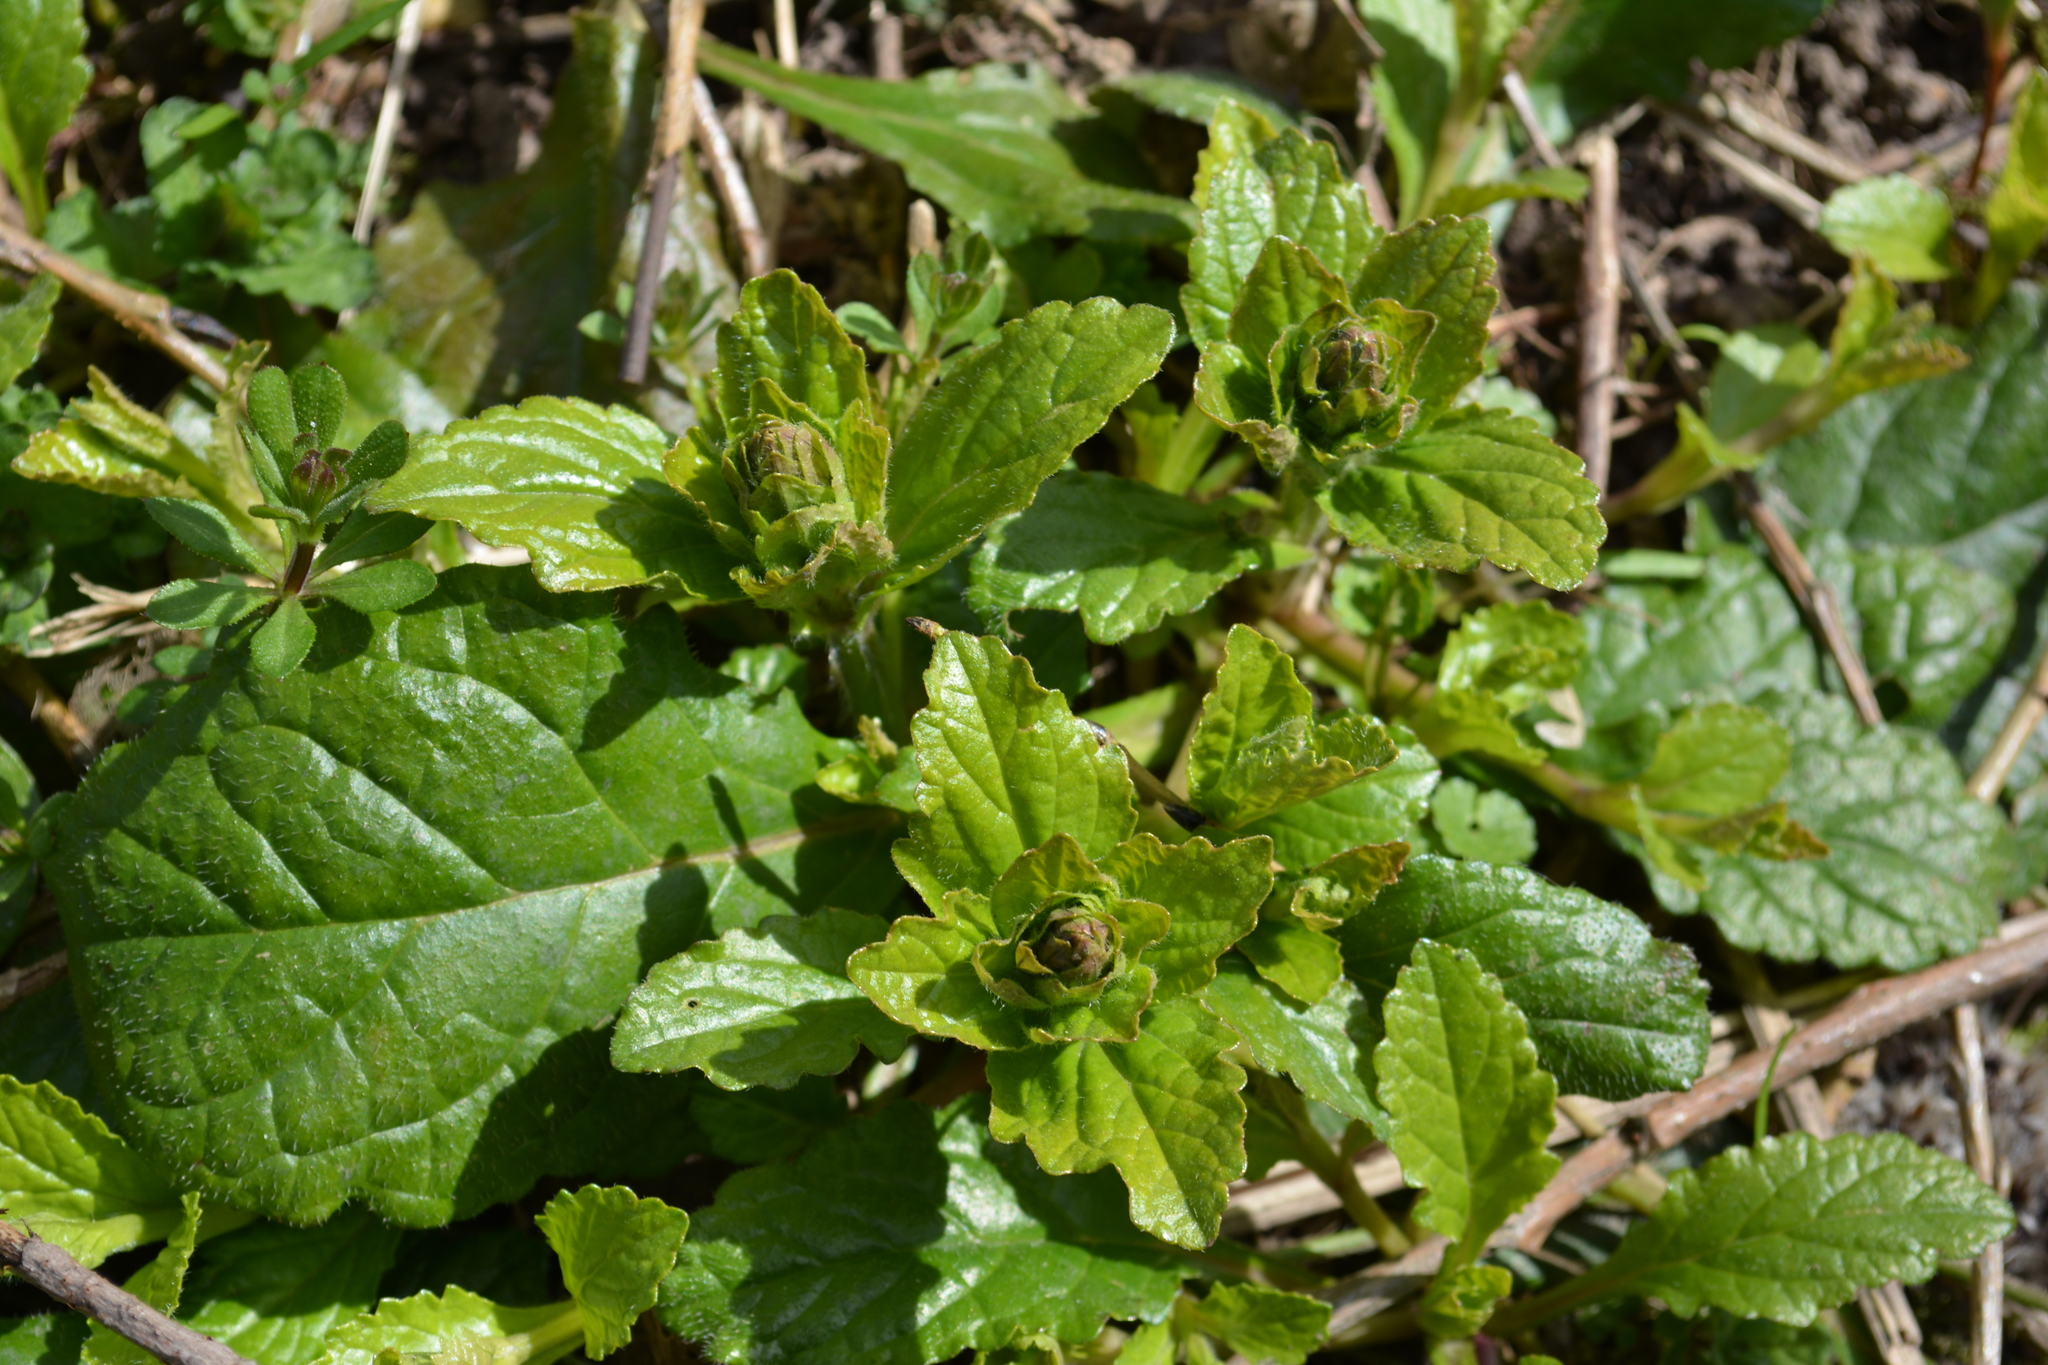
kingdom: Plantae
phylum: Tracheophyta
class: Magnoliopsida
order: Lamiales
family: Lamiaceae
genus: Ajuga
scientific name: Ajuga reptans
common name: Bugle
